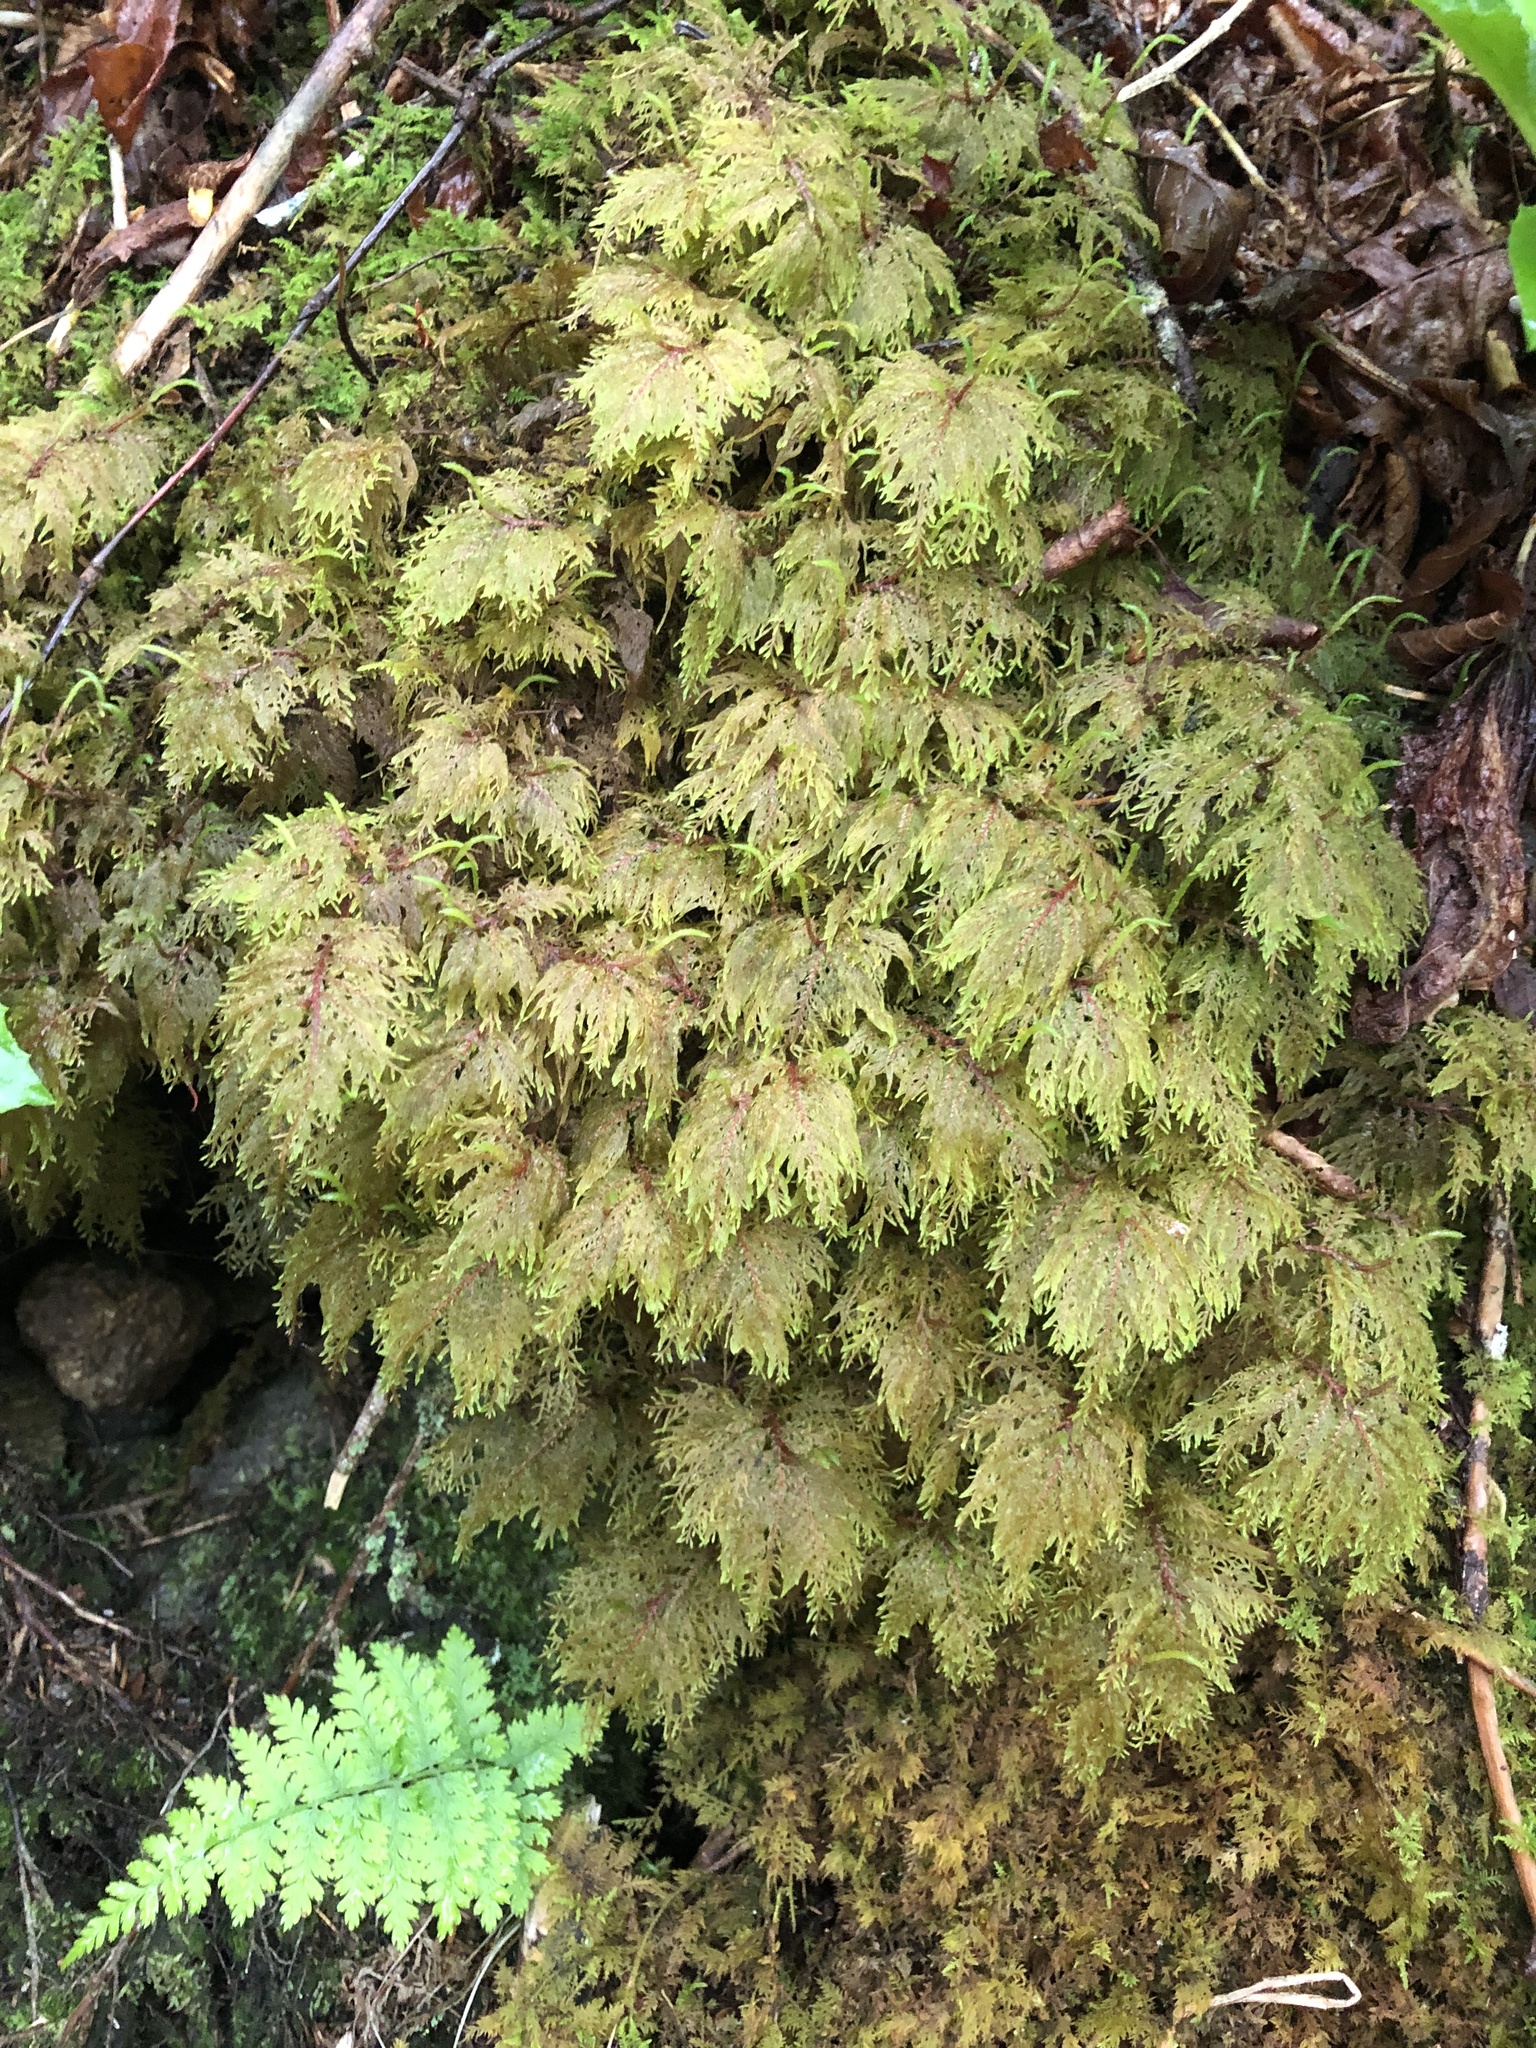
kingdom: Plantae
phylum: Bryophyta
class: Bryopsida
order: Hypnales
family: Hylocomiaceae
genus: Hylocomium
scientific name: Hylocomium splendens
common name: Stairstep moss
